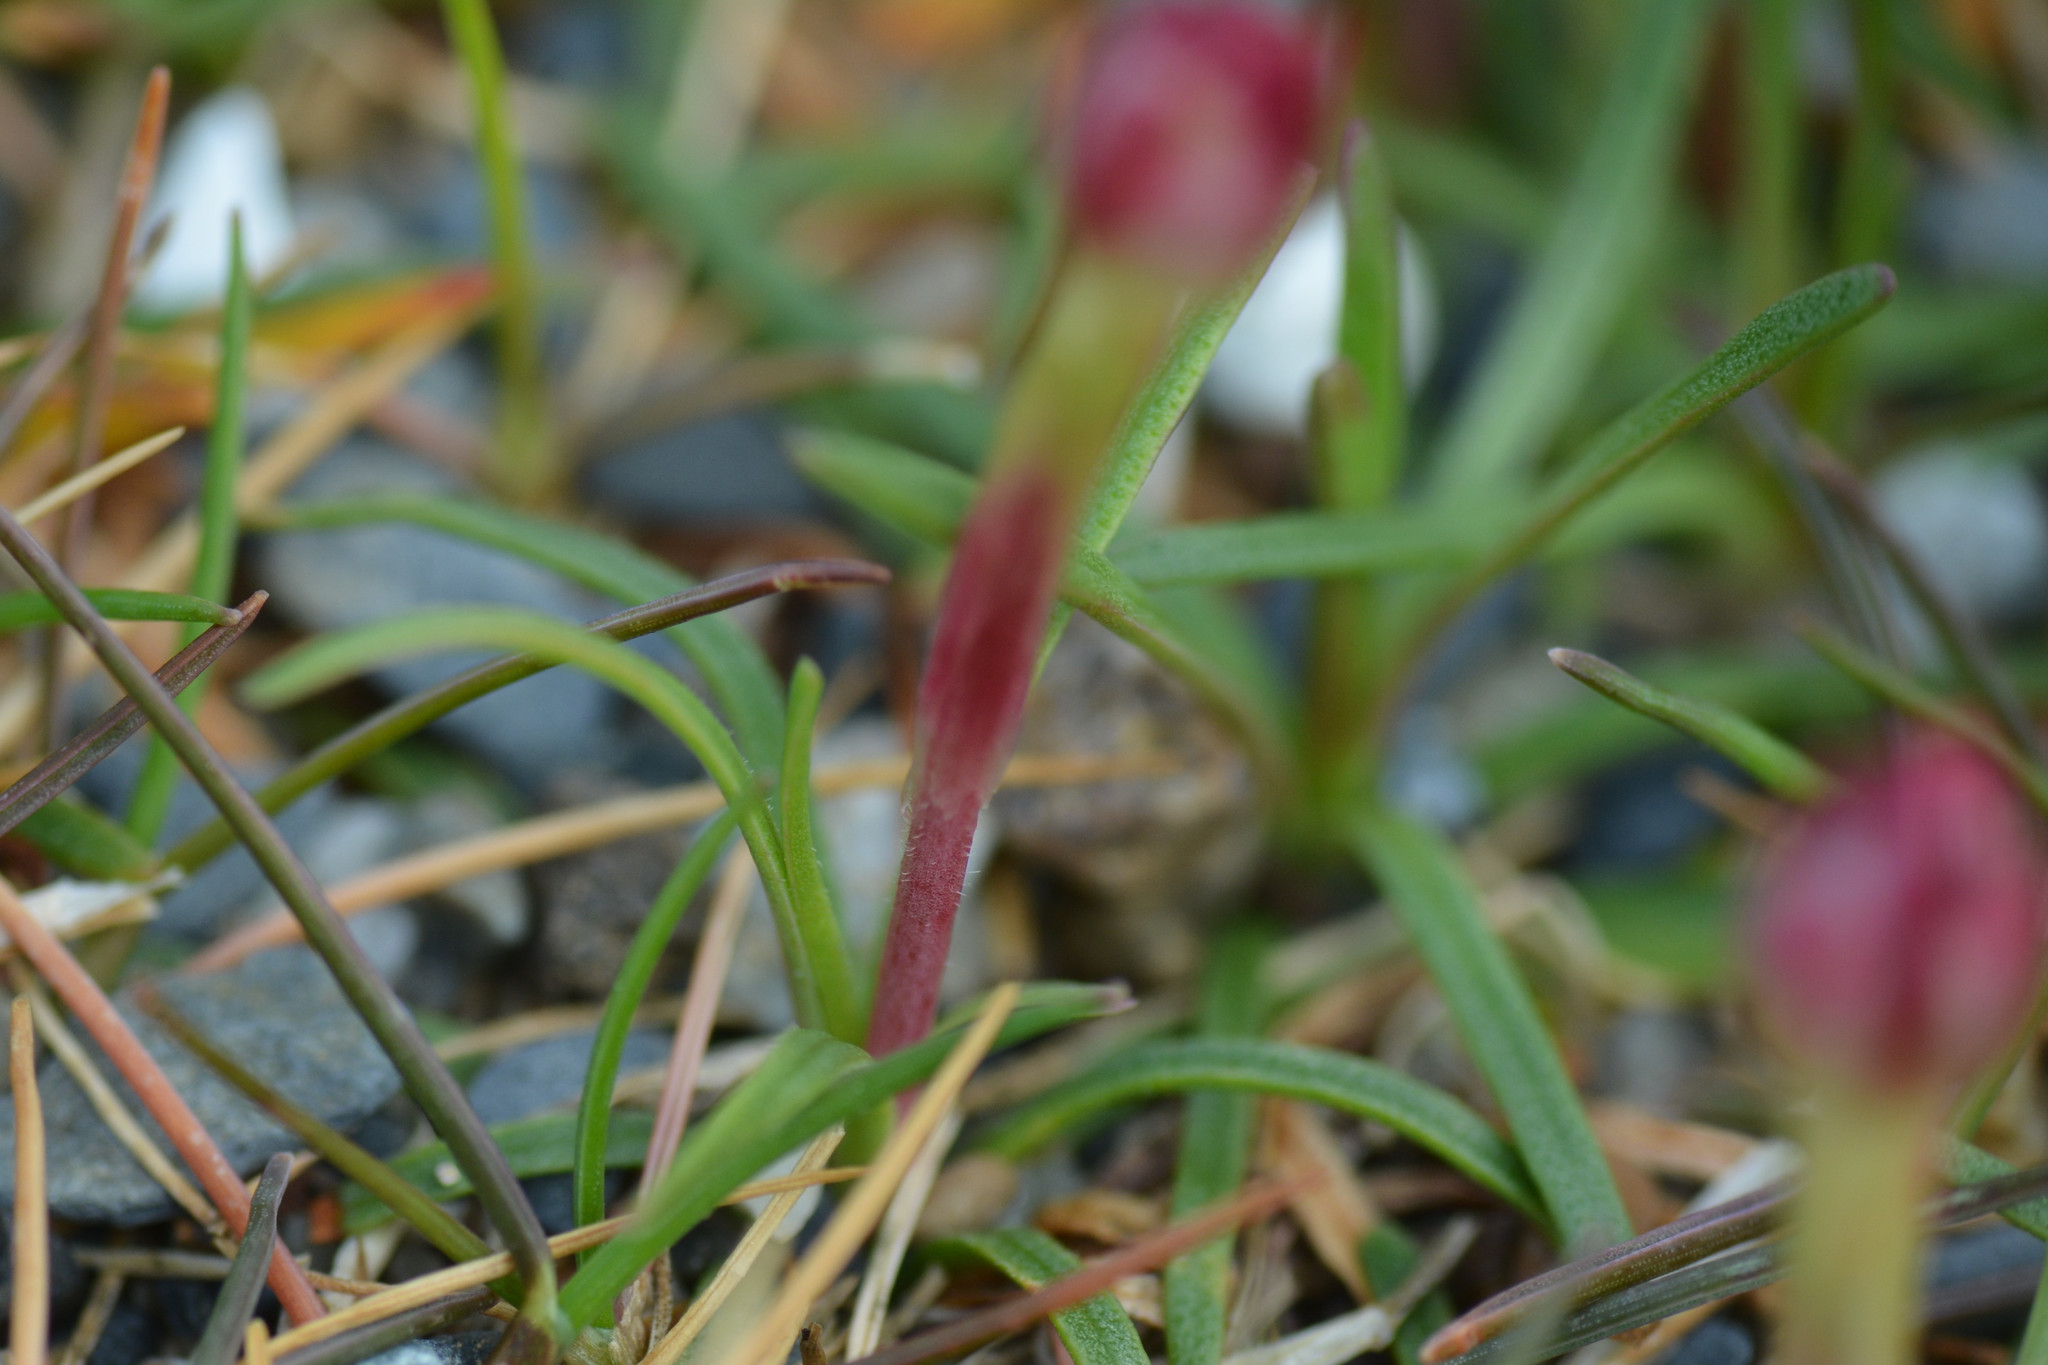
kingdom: Plantae
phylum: Tracheophyta
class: Magnoliopsida
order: Caryophyllales
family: Plumbaginaceae
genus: Armeria
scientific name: Armeria maritima
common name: Thrift
